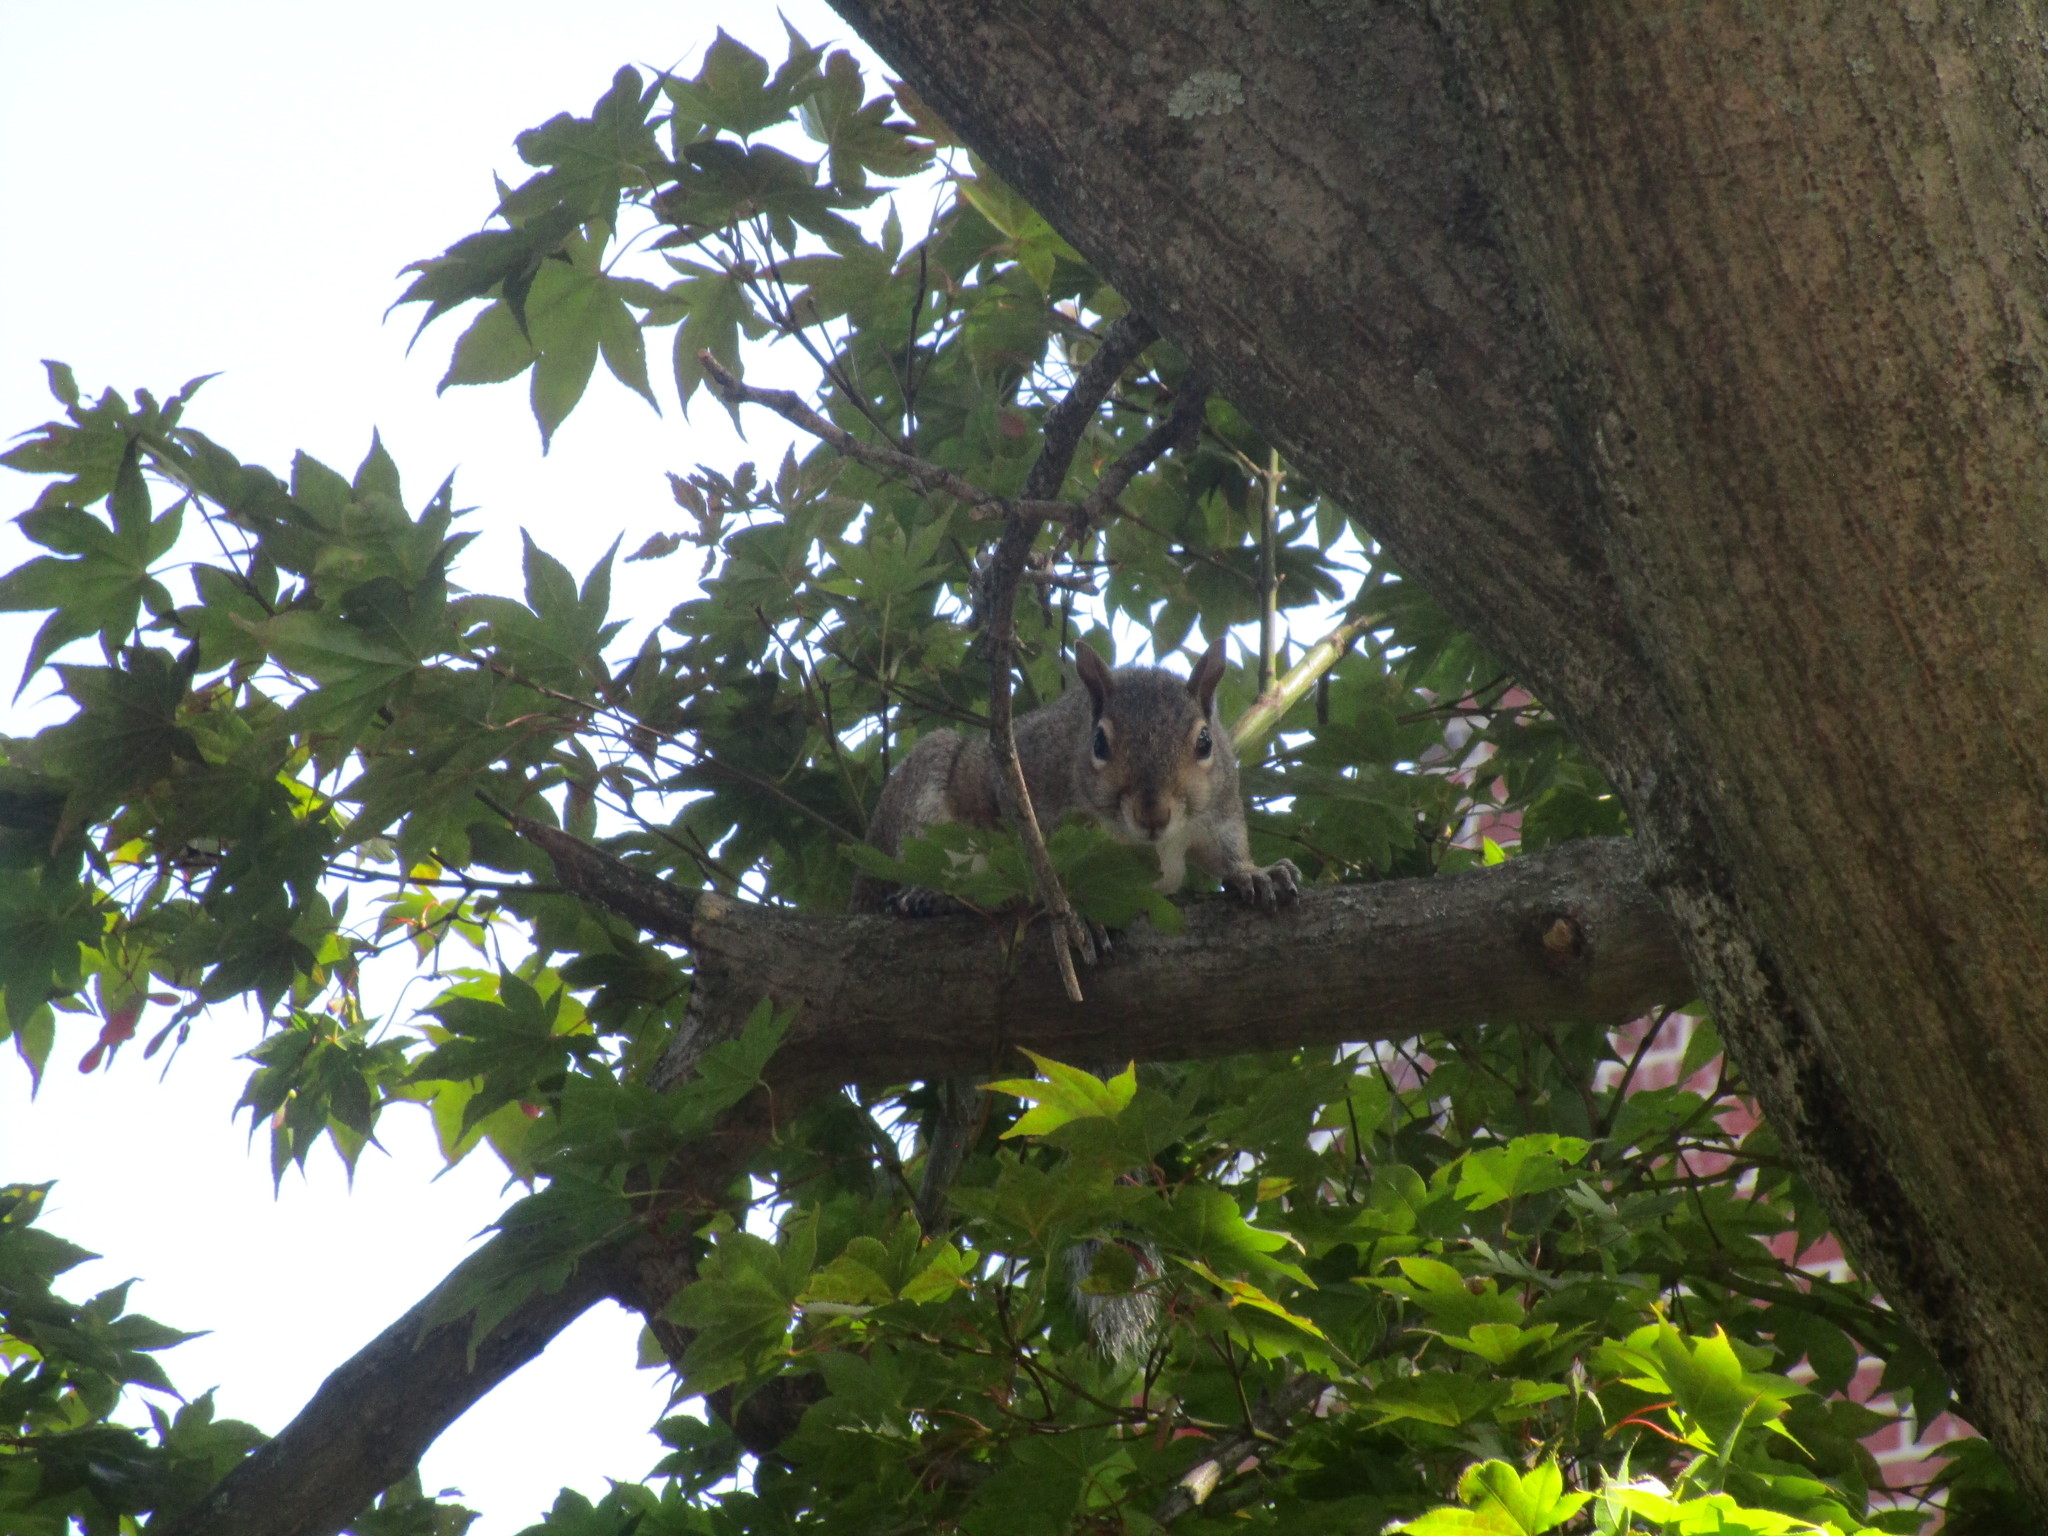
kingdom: Animalia
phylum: Chordata
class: Mammalia
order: Rodentia
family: Sciuridae
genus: Sciurus
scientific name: Sciurus carolinensis
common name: Eastern gray squirrel
